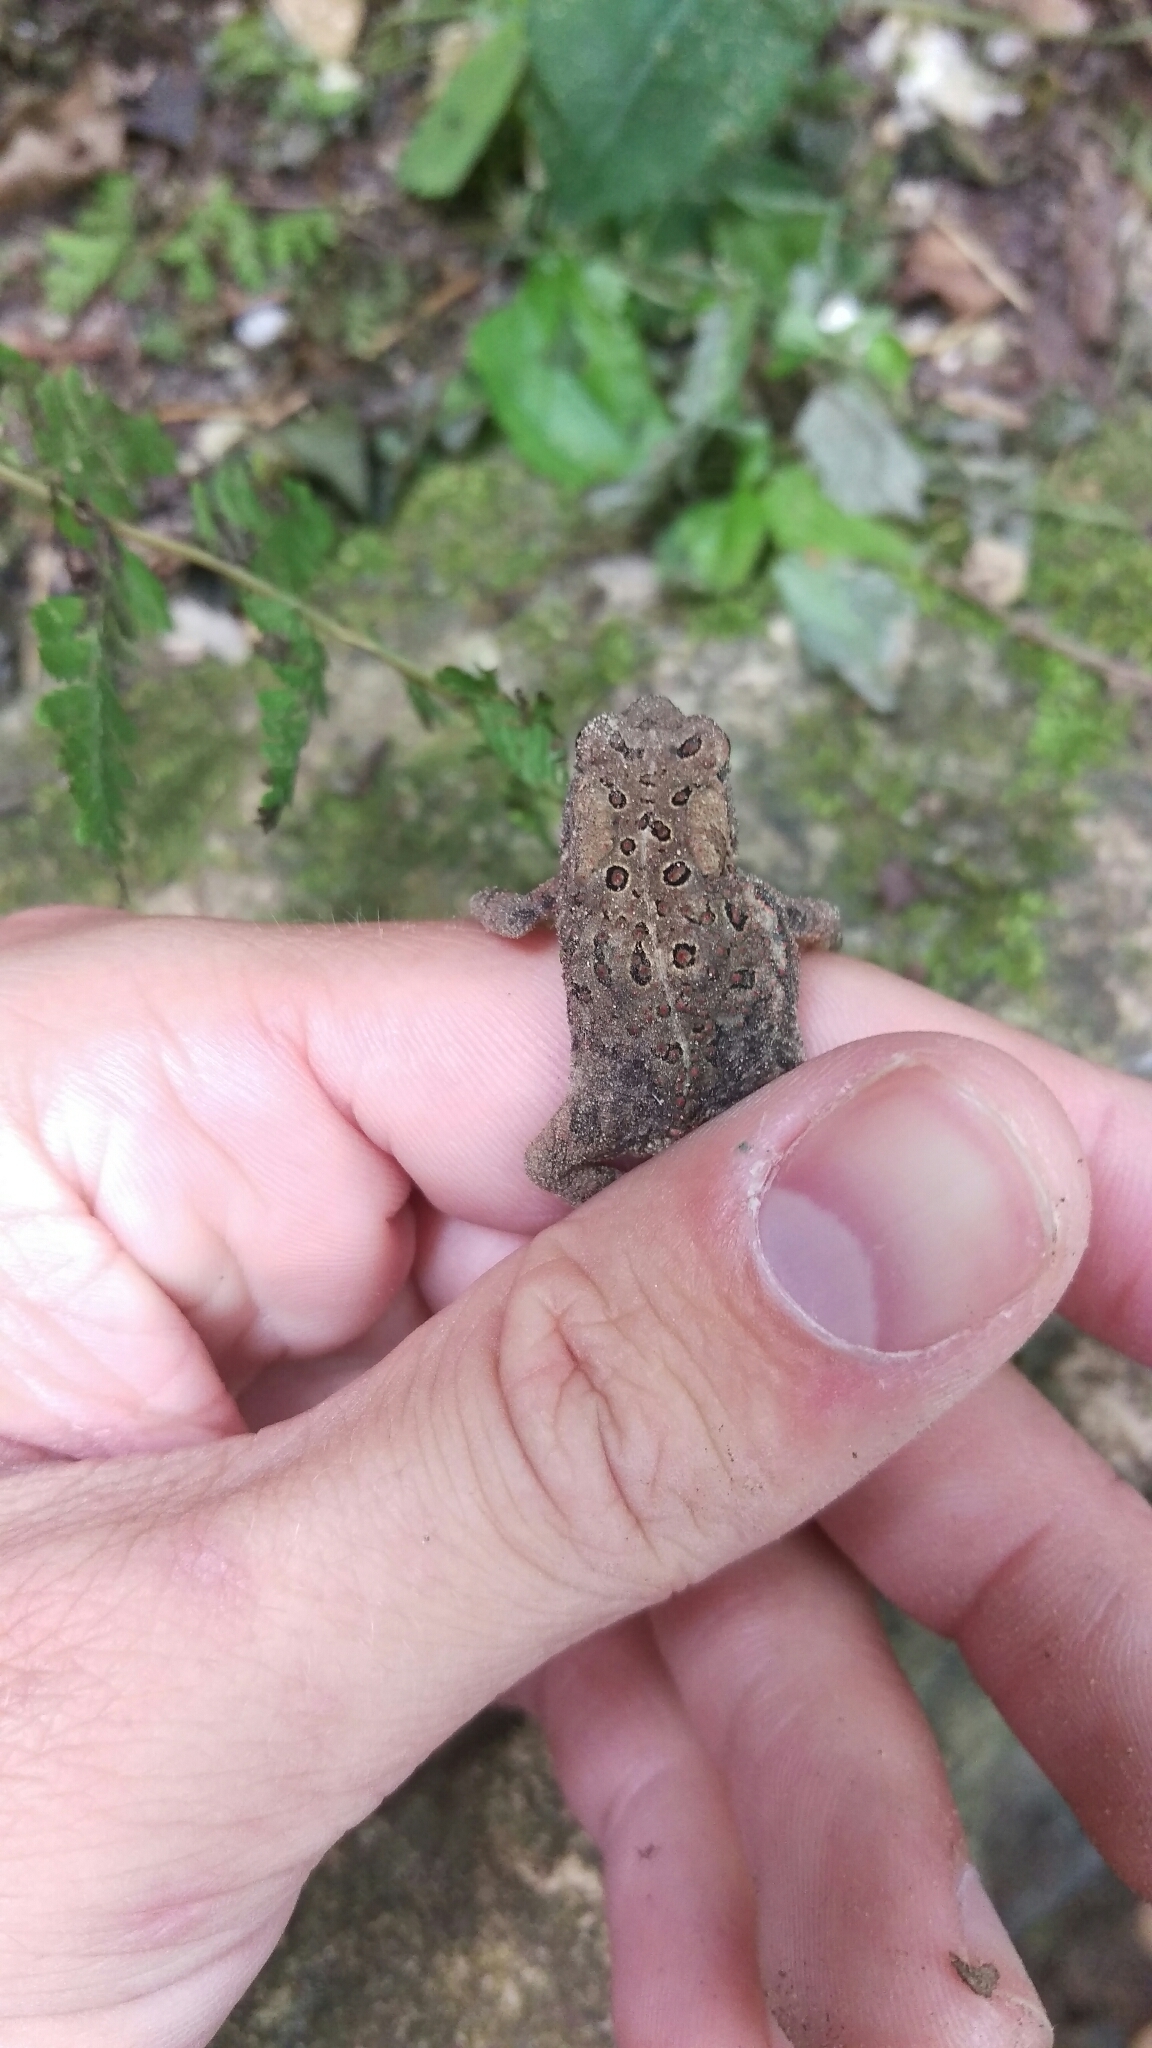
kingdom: Animalia
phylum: Chordata
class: Amphibia
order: Anura
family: Bufonidae
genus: Anaxyrus
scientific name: Anaxyrus americanus
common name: American toad
